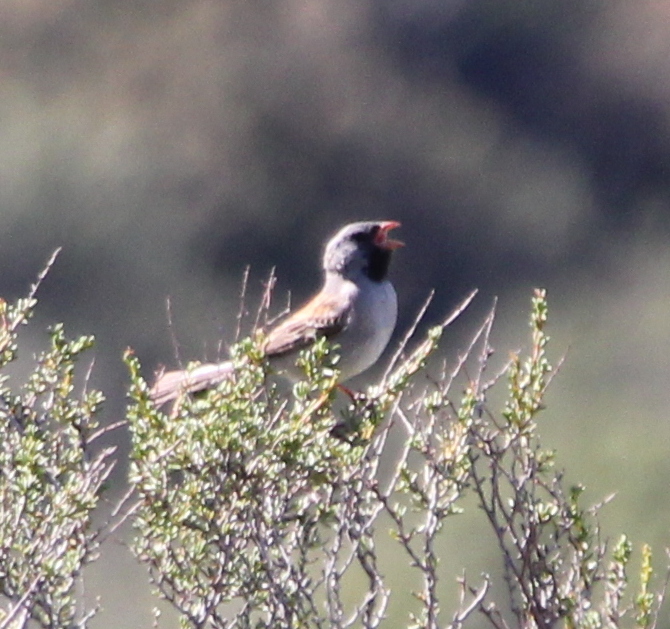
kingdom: Animalia
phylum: Chordata
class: Aves
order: Passeriformes
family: Passerellidae
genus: Spizella
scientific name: Spizella atrogularis
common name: Black-chinned sparrow
